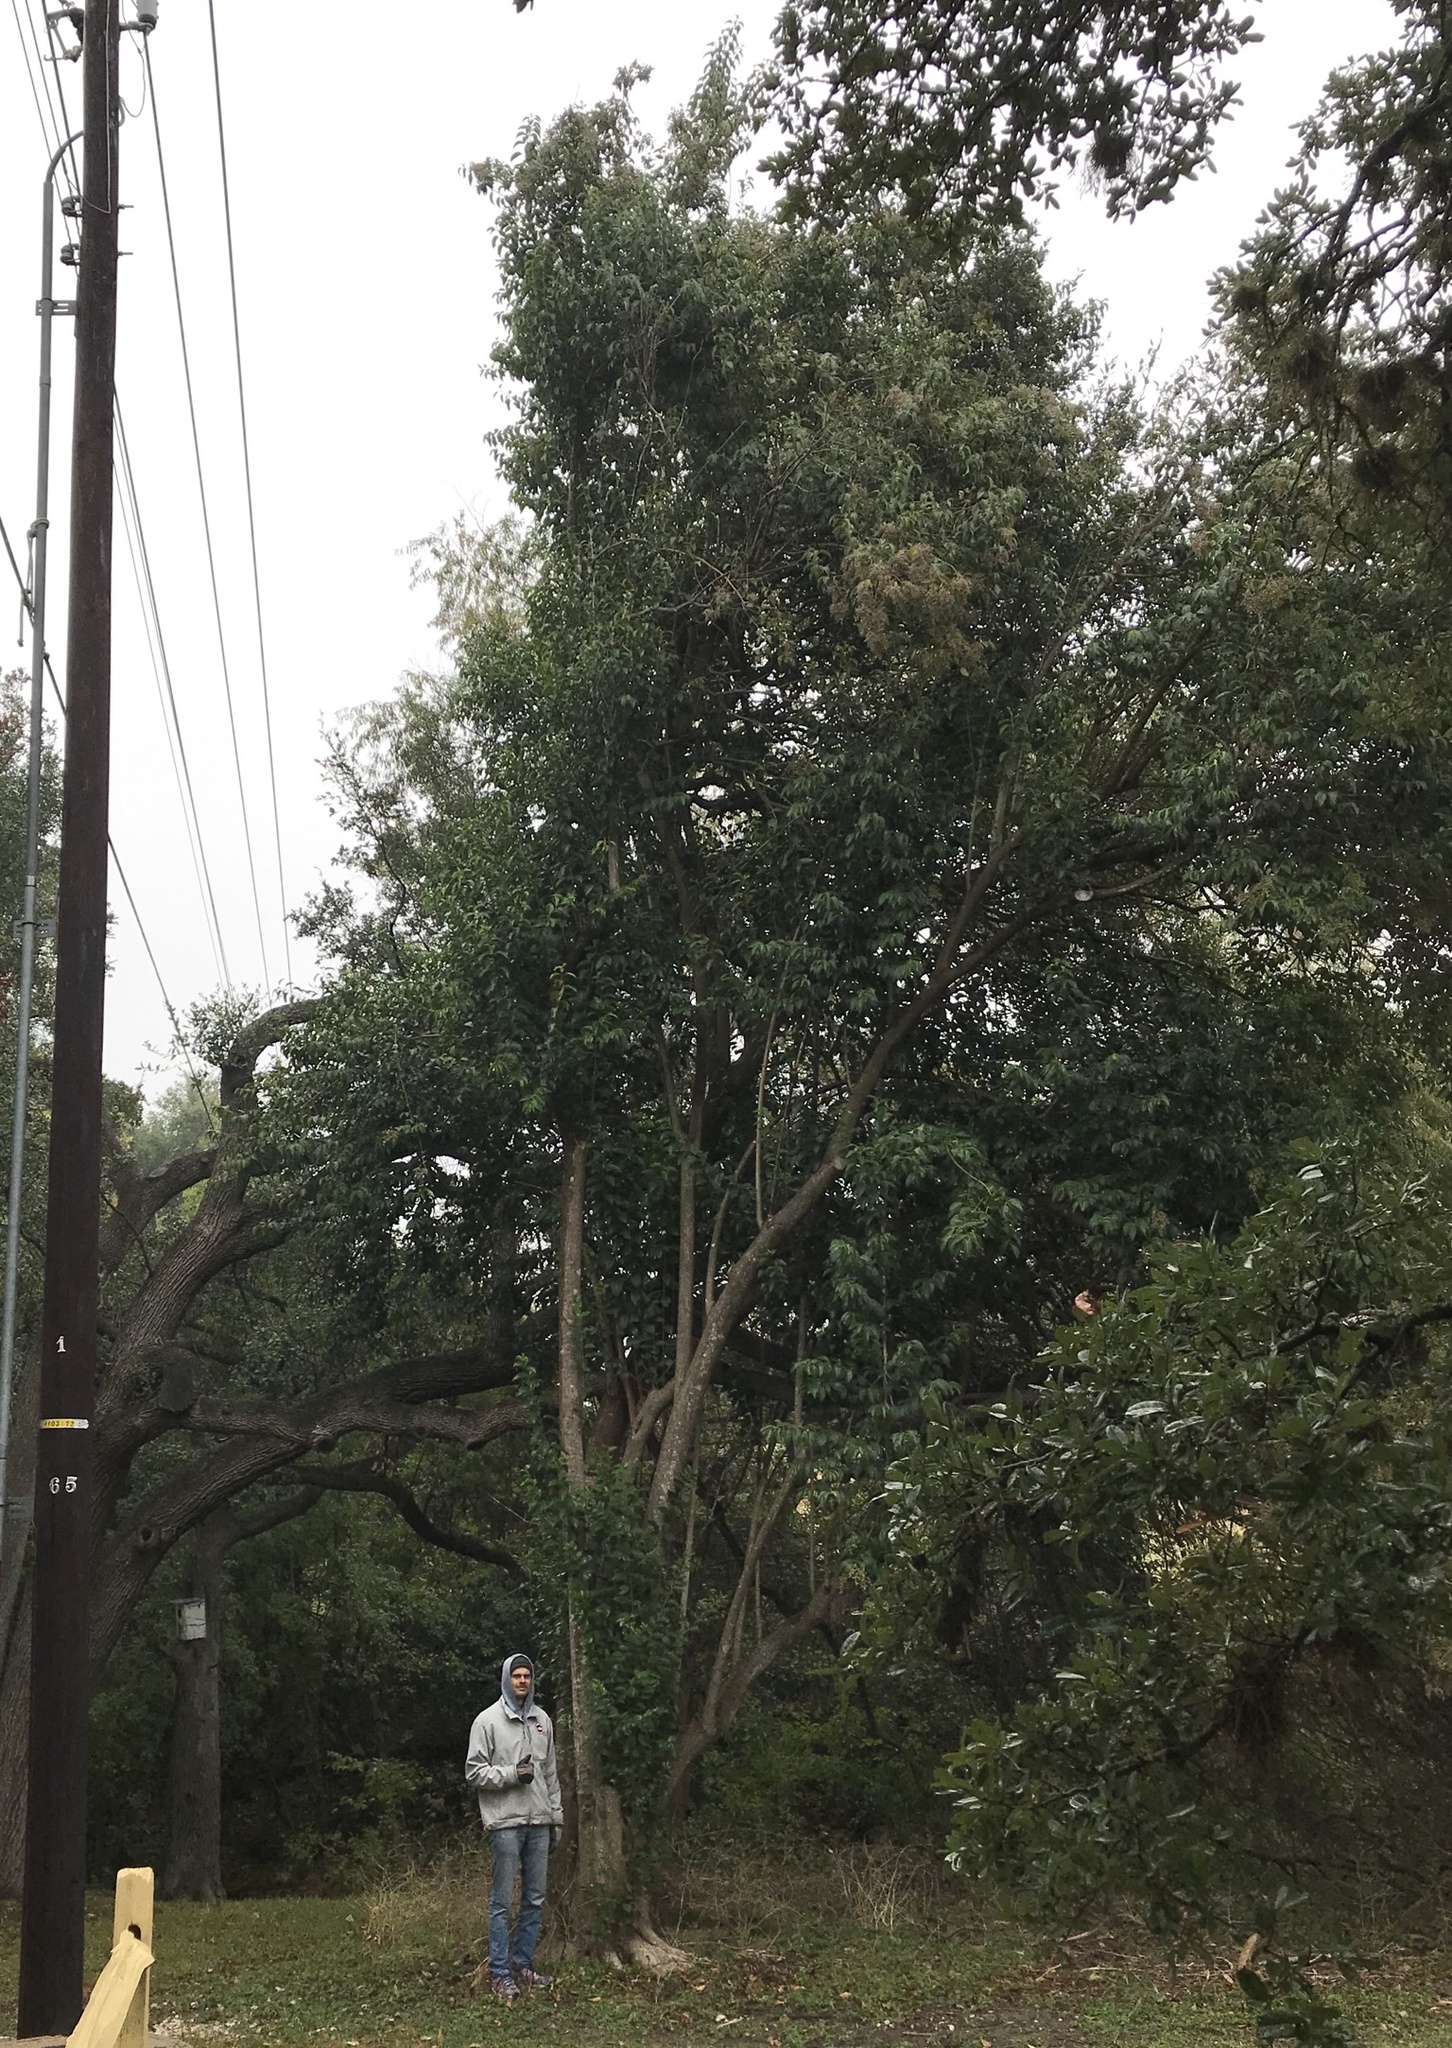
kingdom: Plantae
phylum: Tracheophyta
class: Magnoliopsida
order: Lamiales
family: Oleaceae
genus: Ligustrum
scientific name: Ligustrum lucidum
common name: Glossy privet
